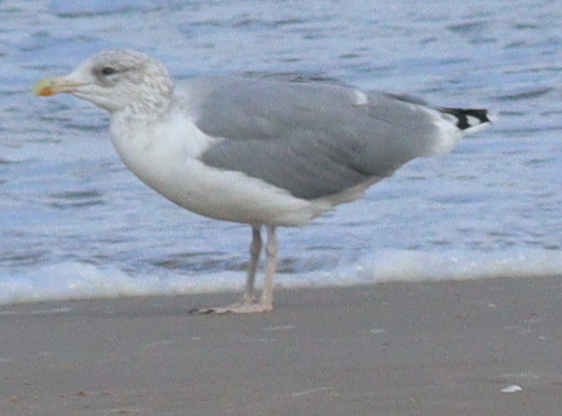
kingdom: Animalia
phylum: Chordata
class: Aves
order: Charadriiformes
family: Laridae
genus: Larus
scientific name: Larus argentatus
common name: Herring gull
